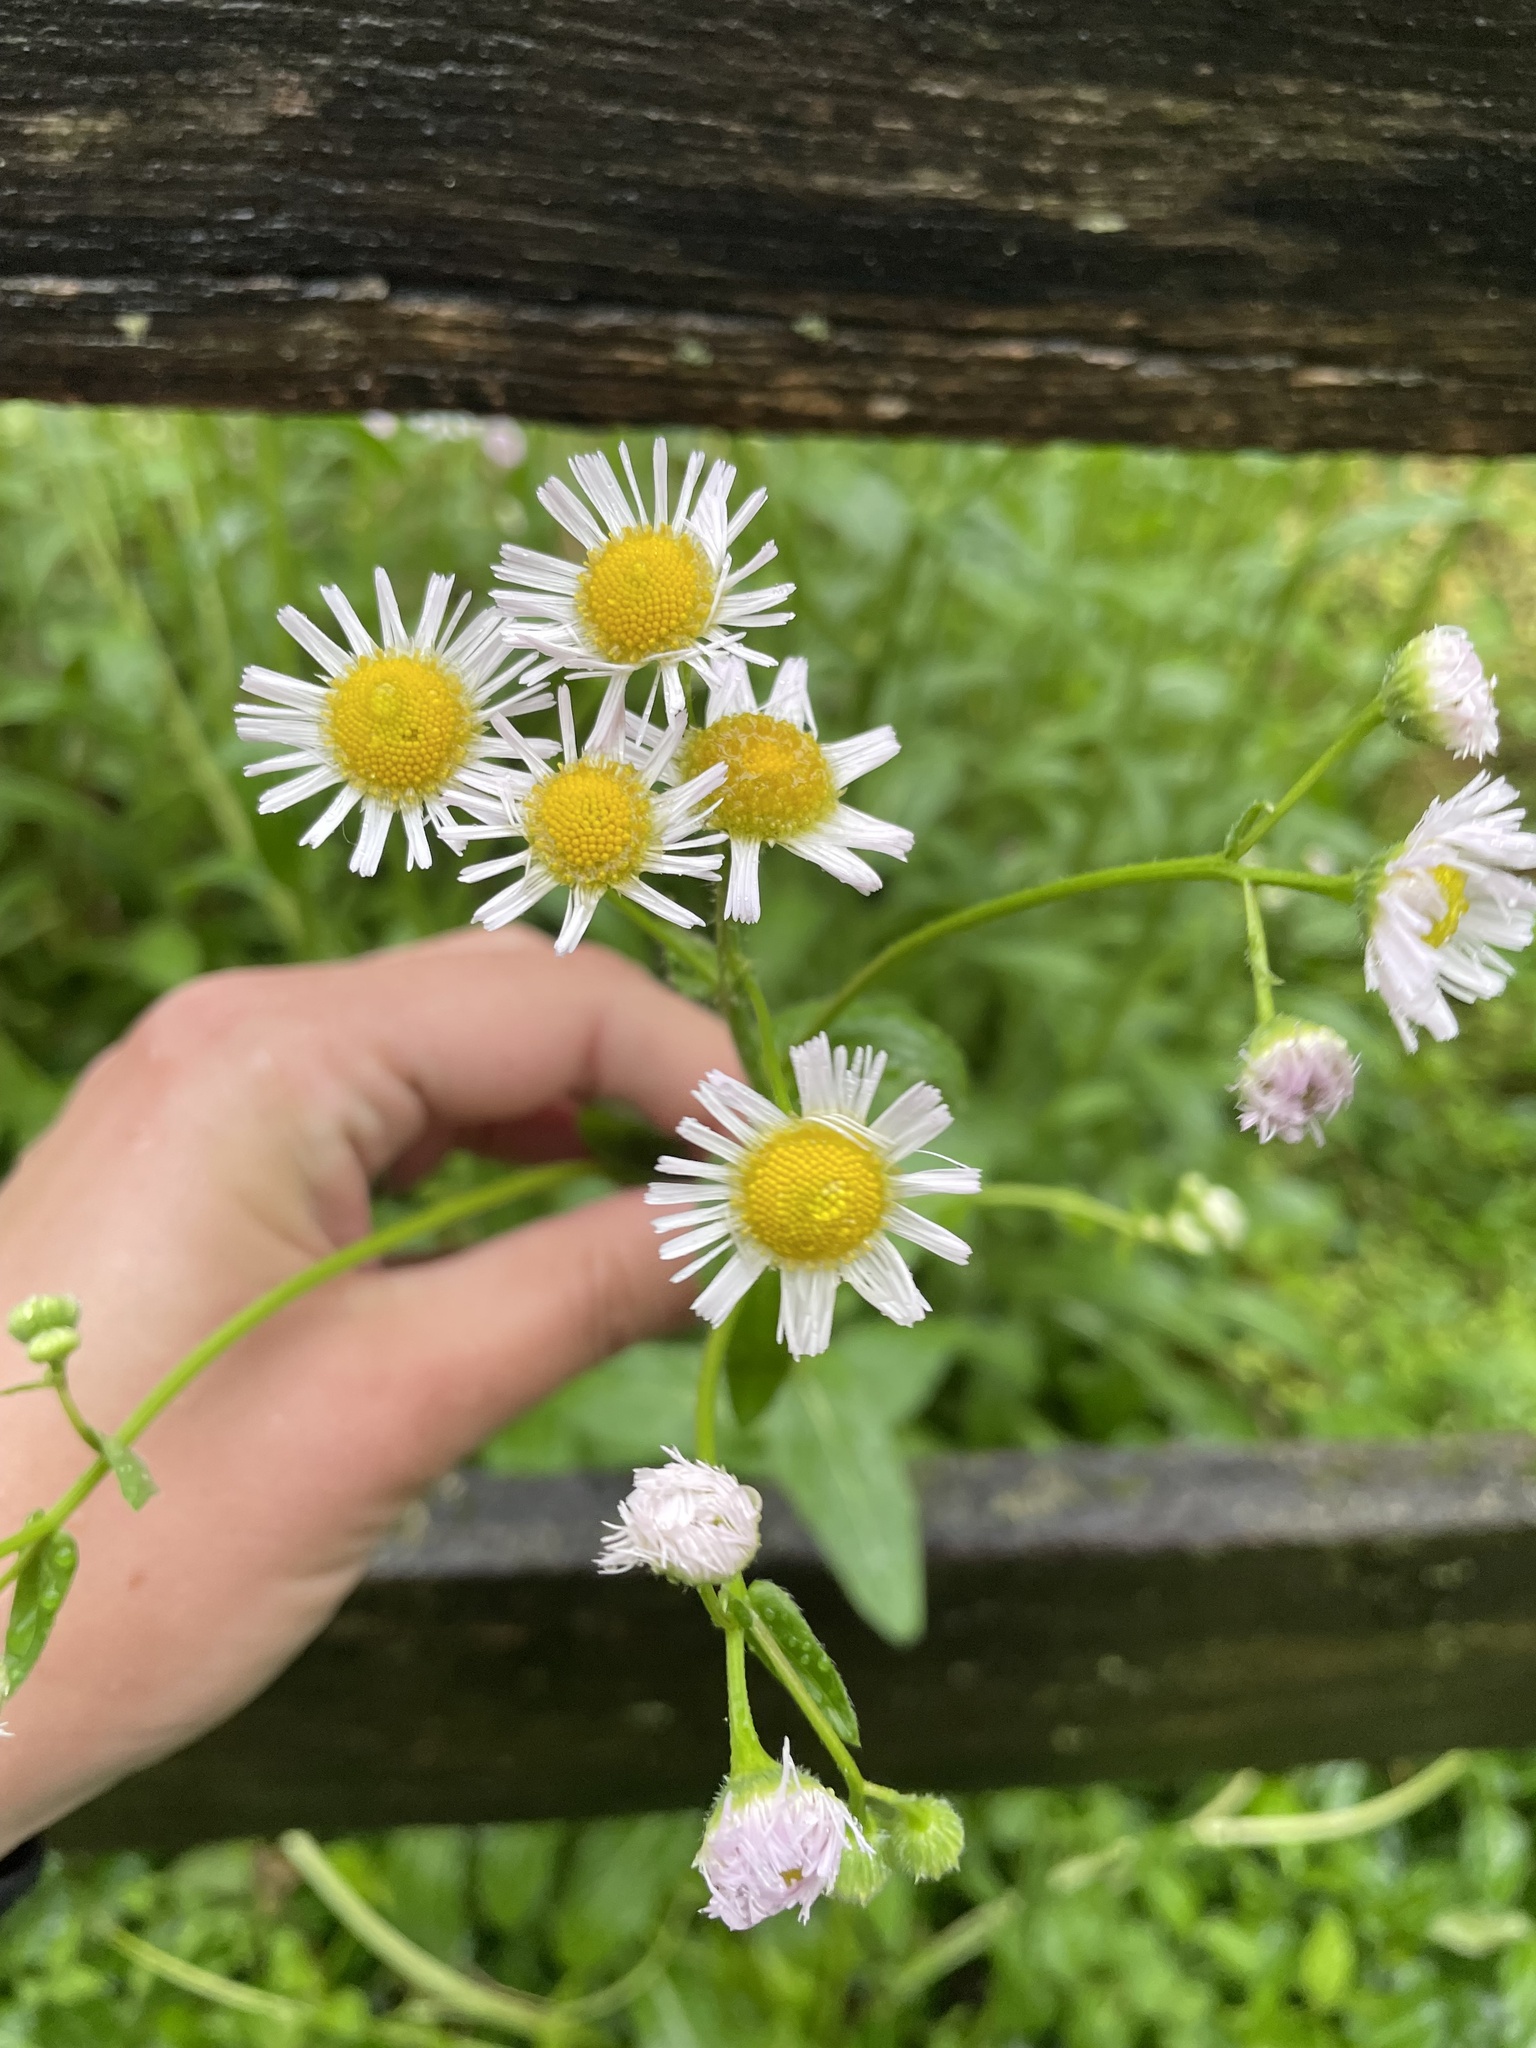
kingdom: Plantae
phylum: Tracheophyta
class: Magnoliopsida
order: Asterales
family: Asteraceae
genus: Erigeron
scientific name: Erigeron philadelphicus
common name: Robin's-plantain
